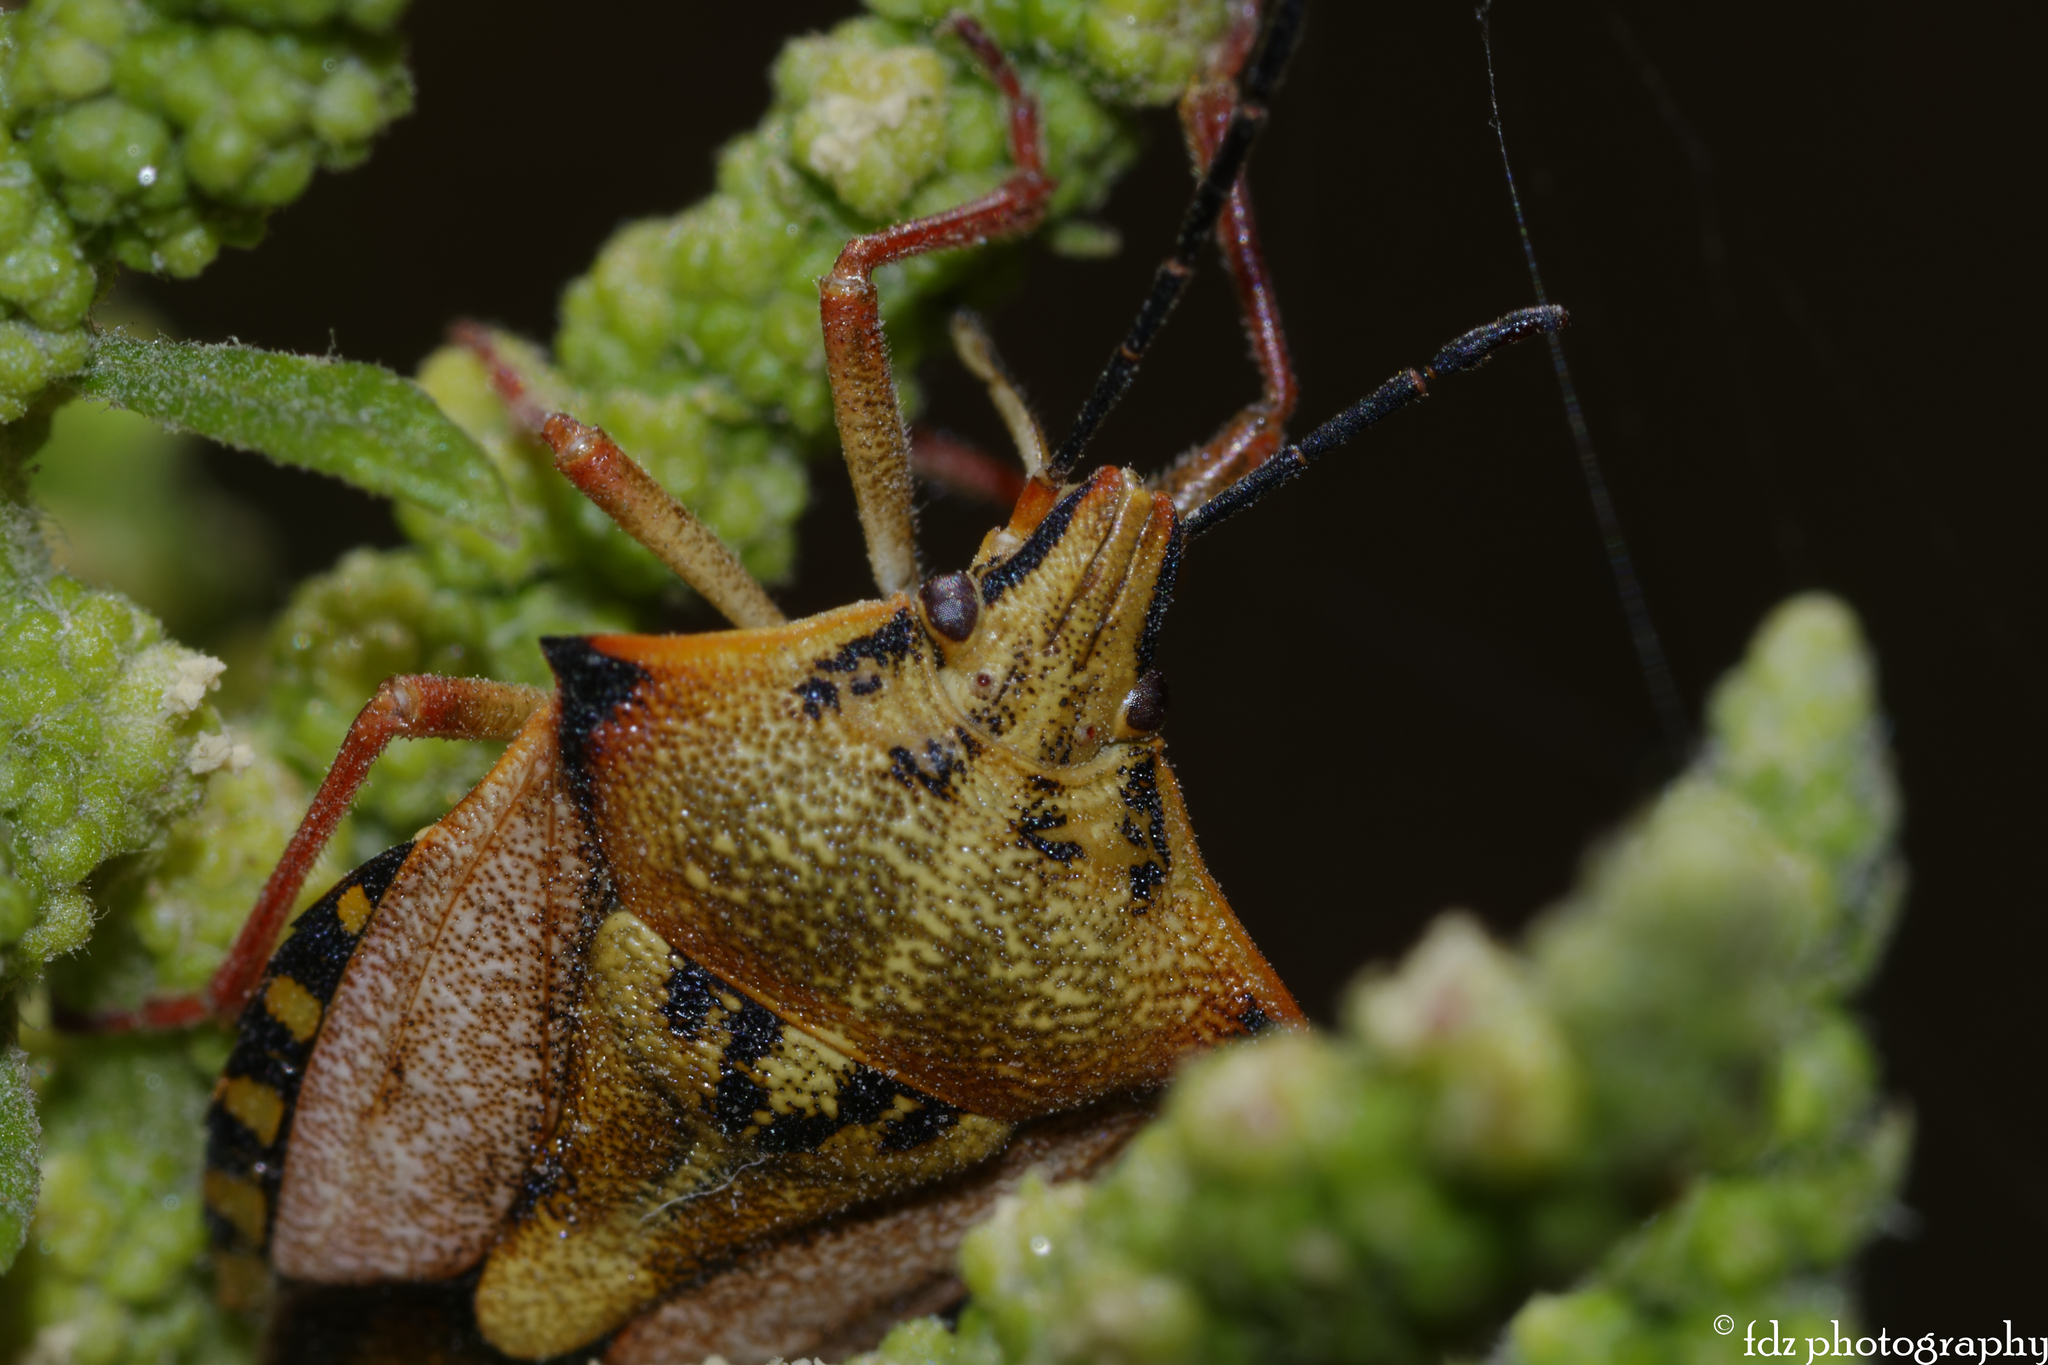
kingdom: Animalia
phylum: Arthropoda
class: Insecta
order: Hemiptera
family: Pentatomidae
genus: Carpocoris
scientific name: Carpocoris mediterraneus
